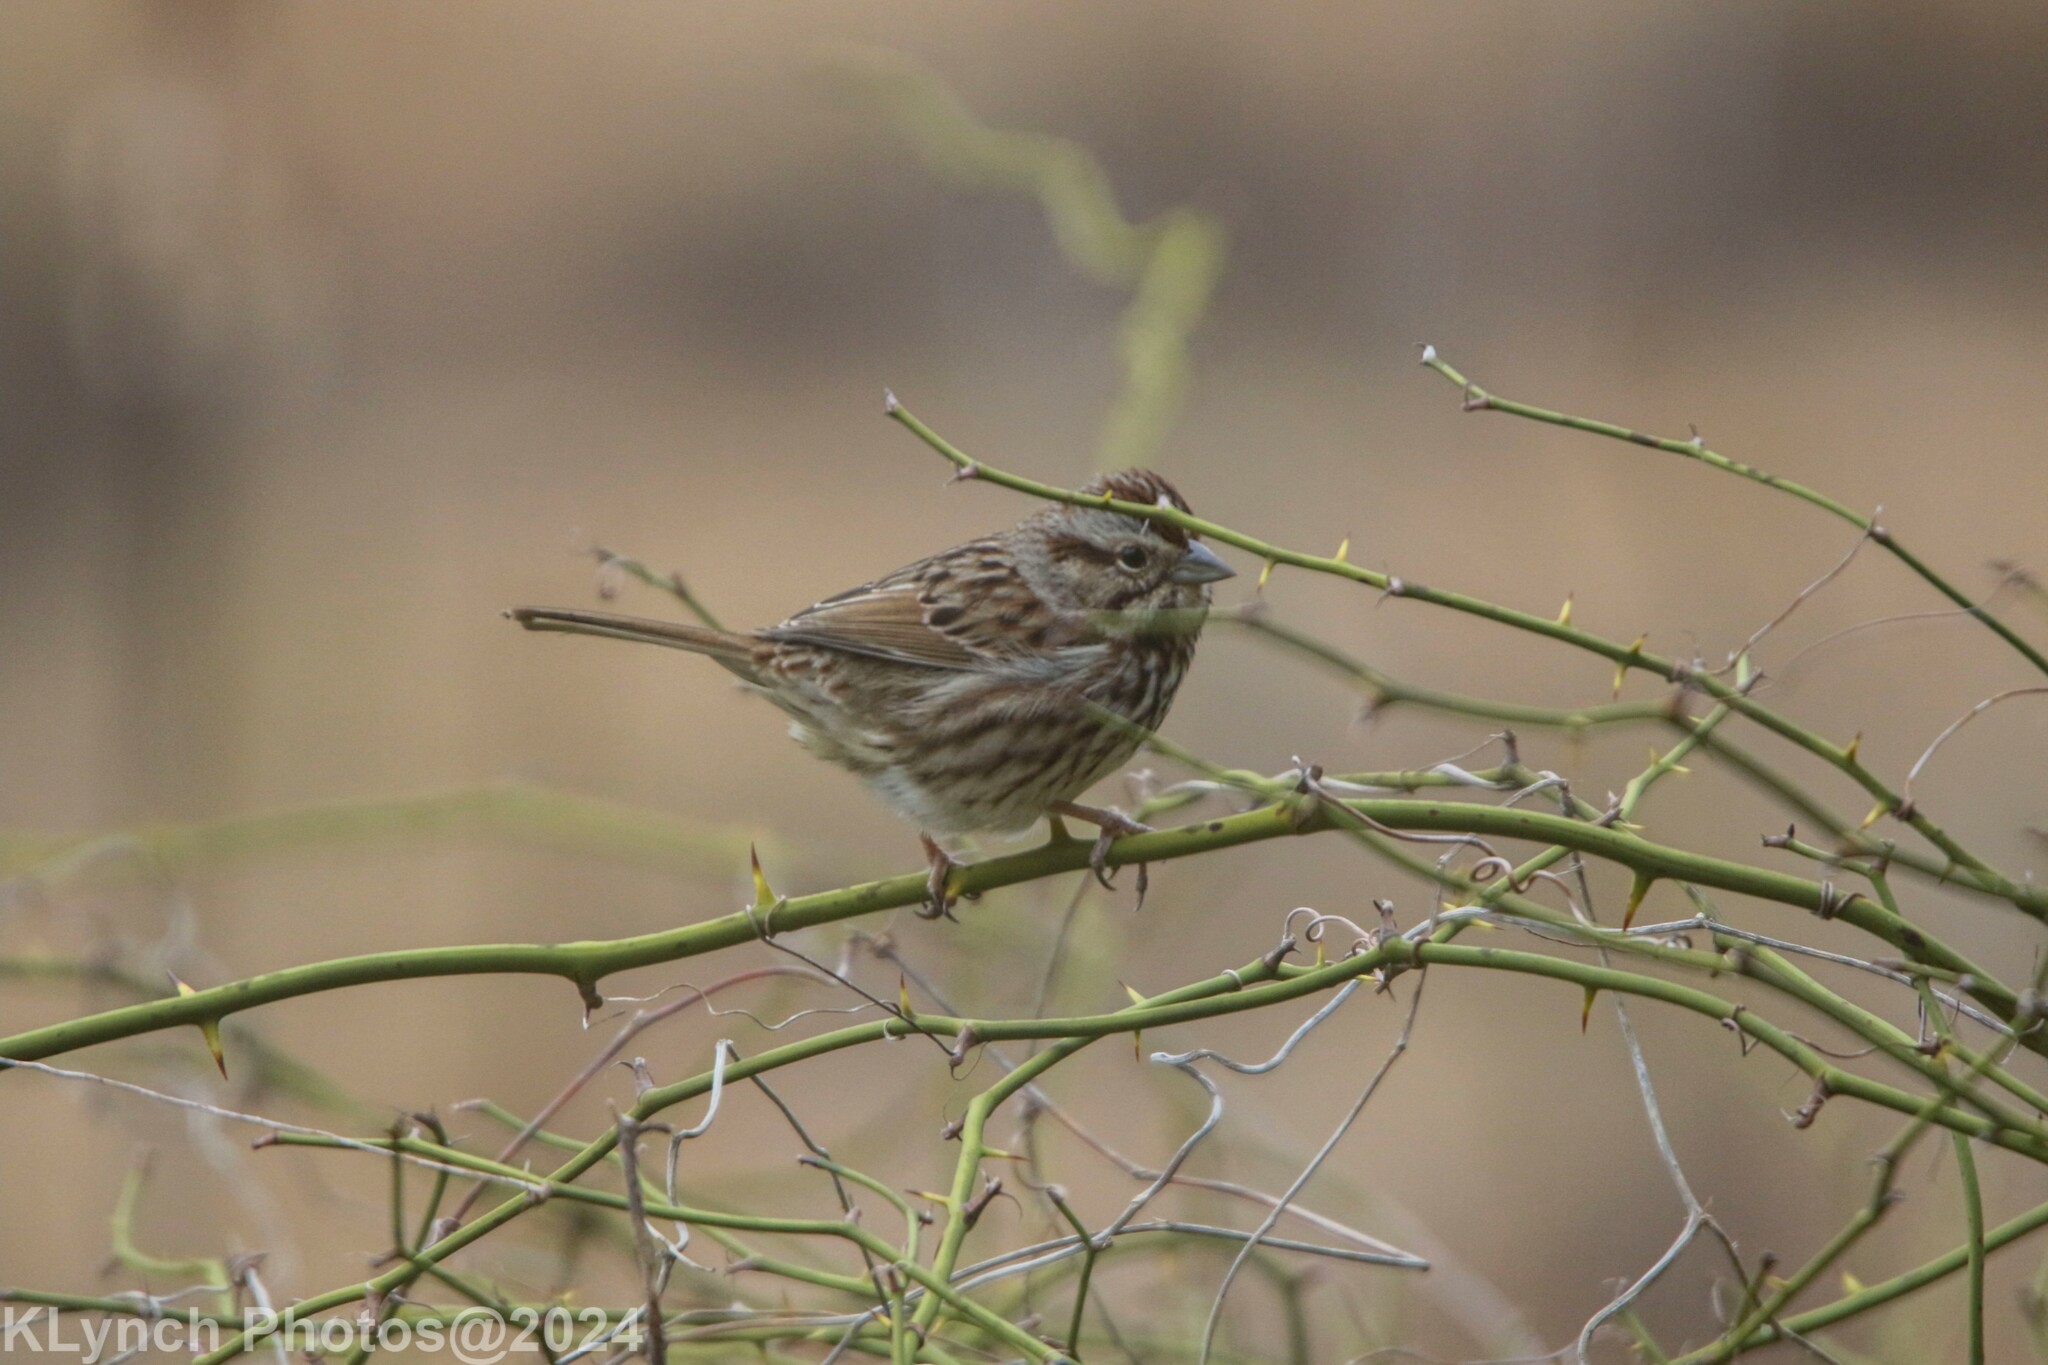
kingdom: Animalia
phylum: Chordata
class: Aves
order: Passeriformes
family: Passerellidae
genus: Melospiza
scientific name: Melospiza melodia
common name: Song sparrow
